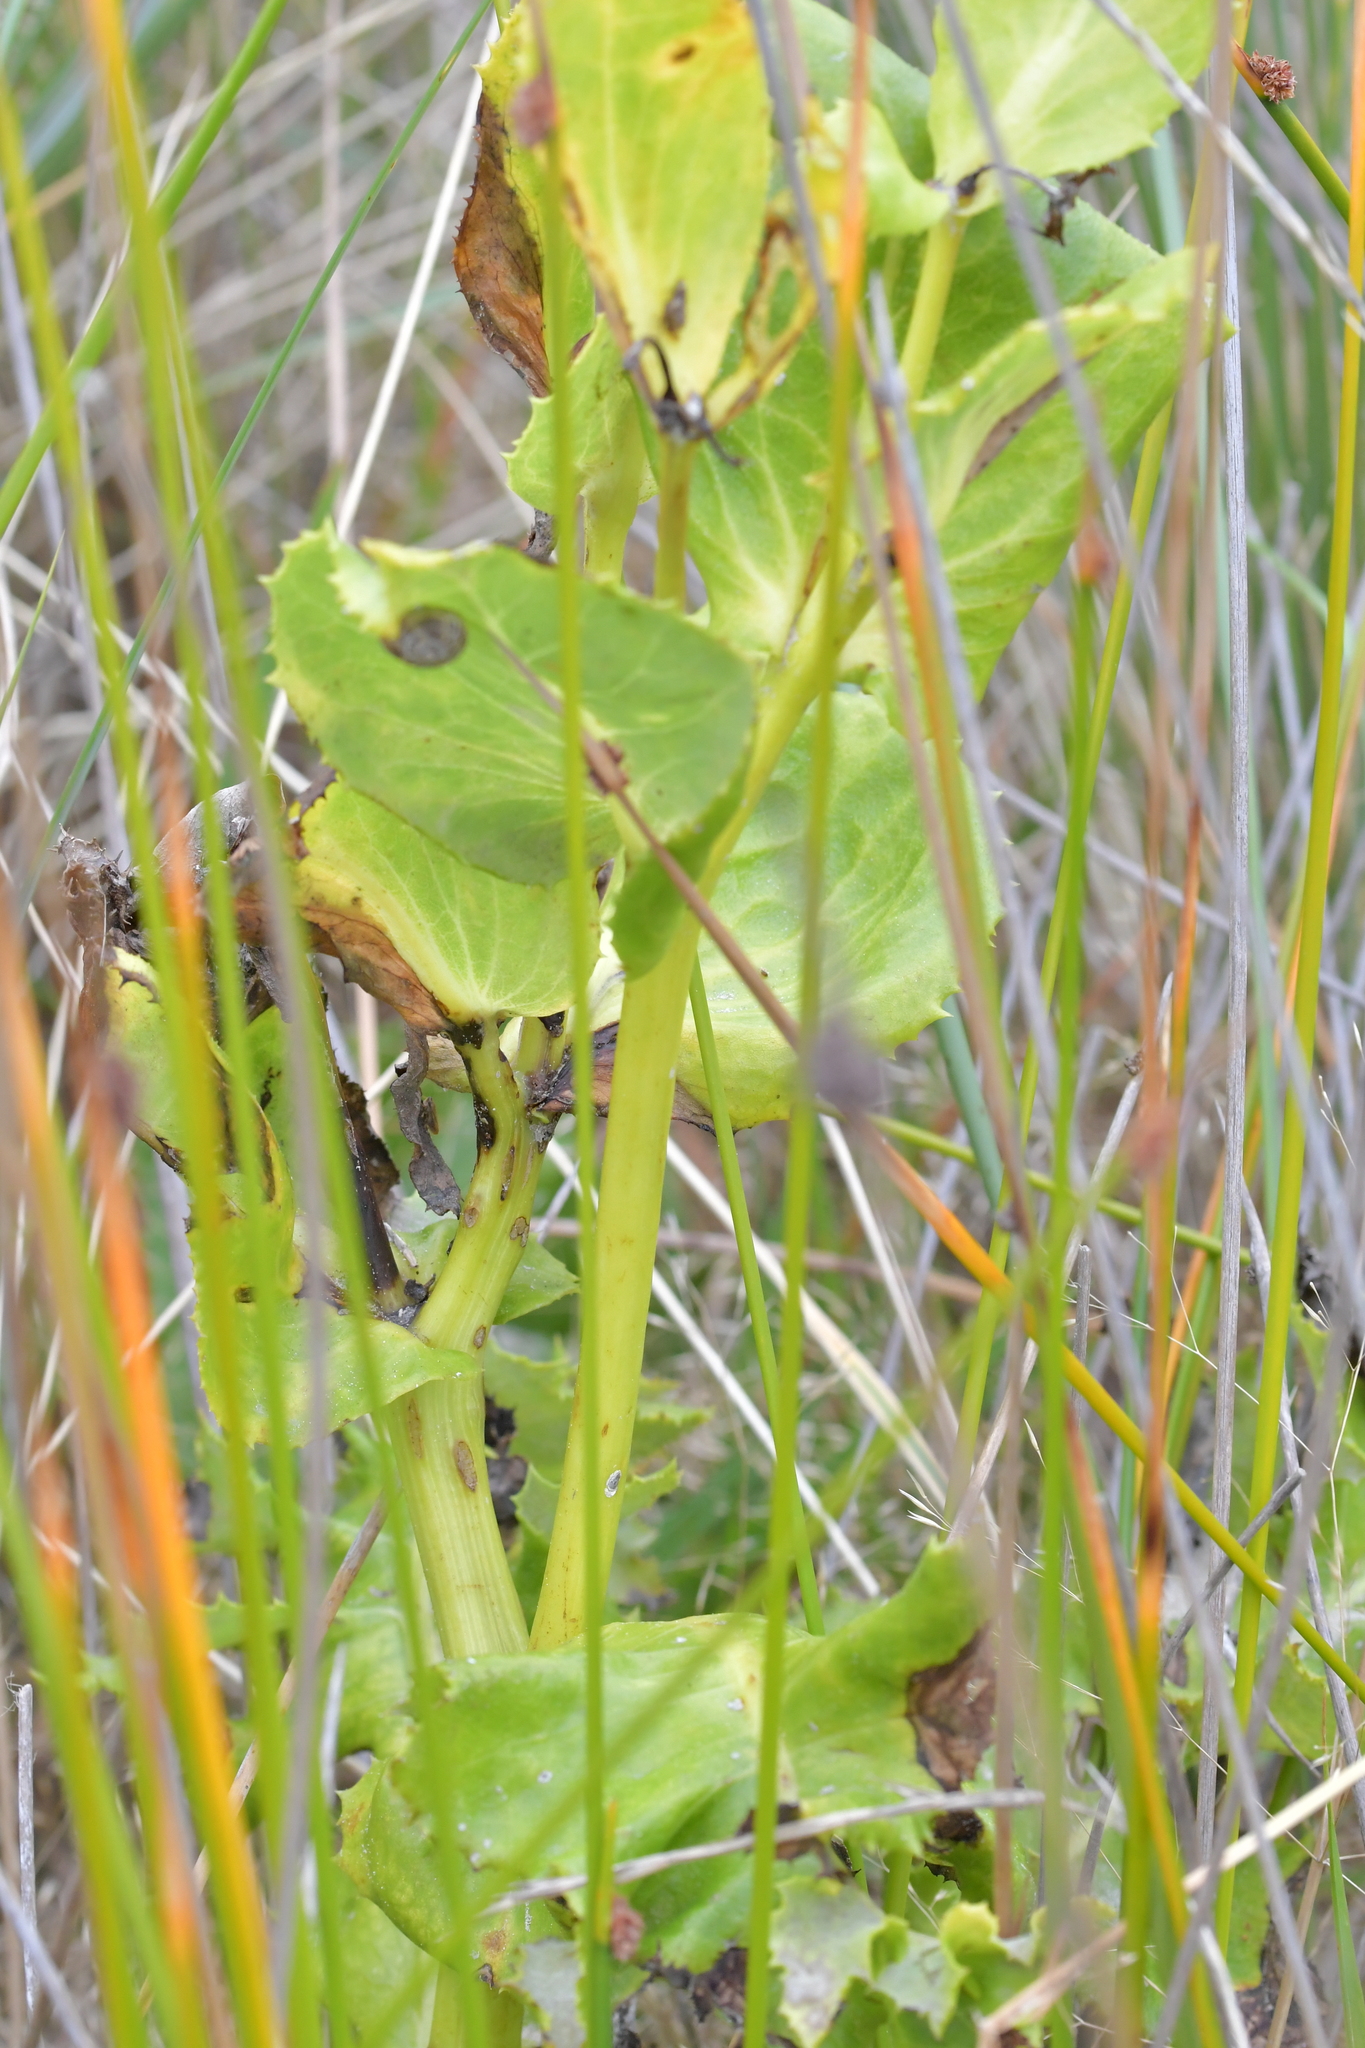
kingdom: Plantae
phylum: Tracheophyta
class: Magnoliopsida
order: Asterales
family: Asteraceae
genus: Sonchus
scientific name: Sonchus grandifolius
